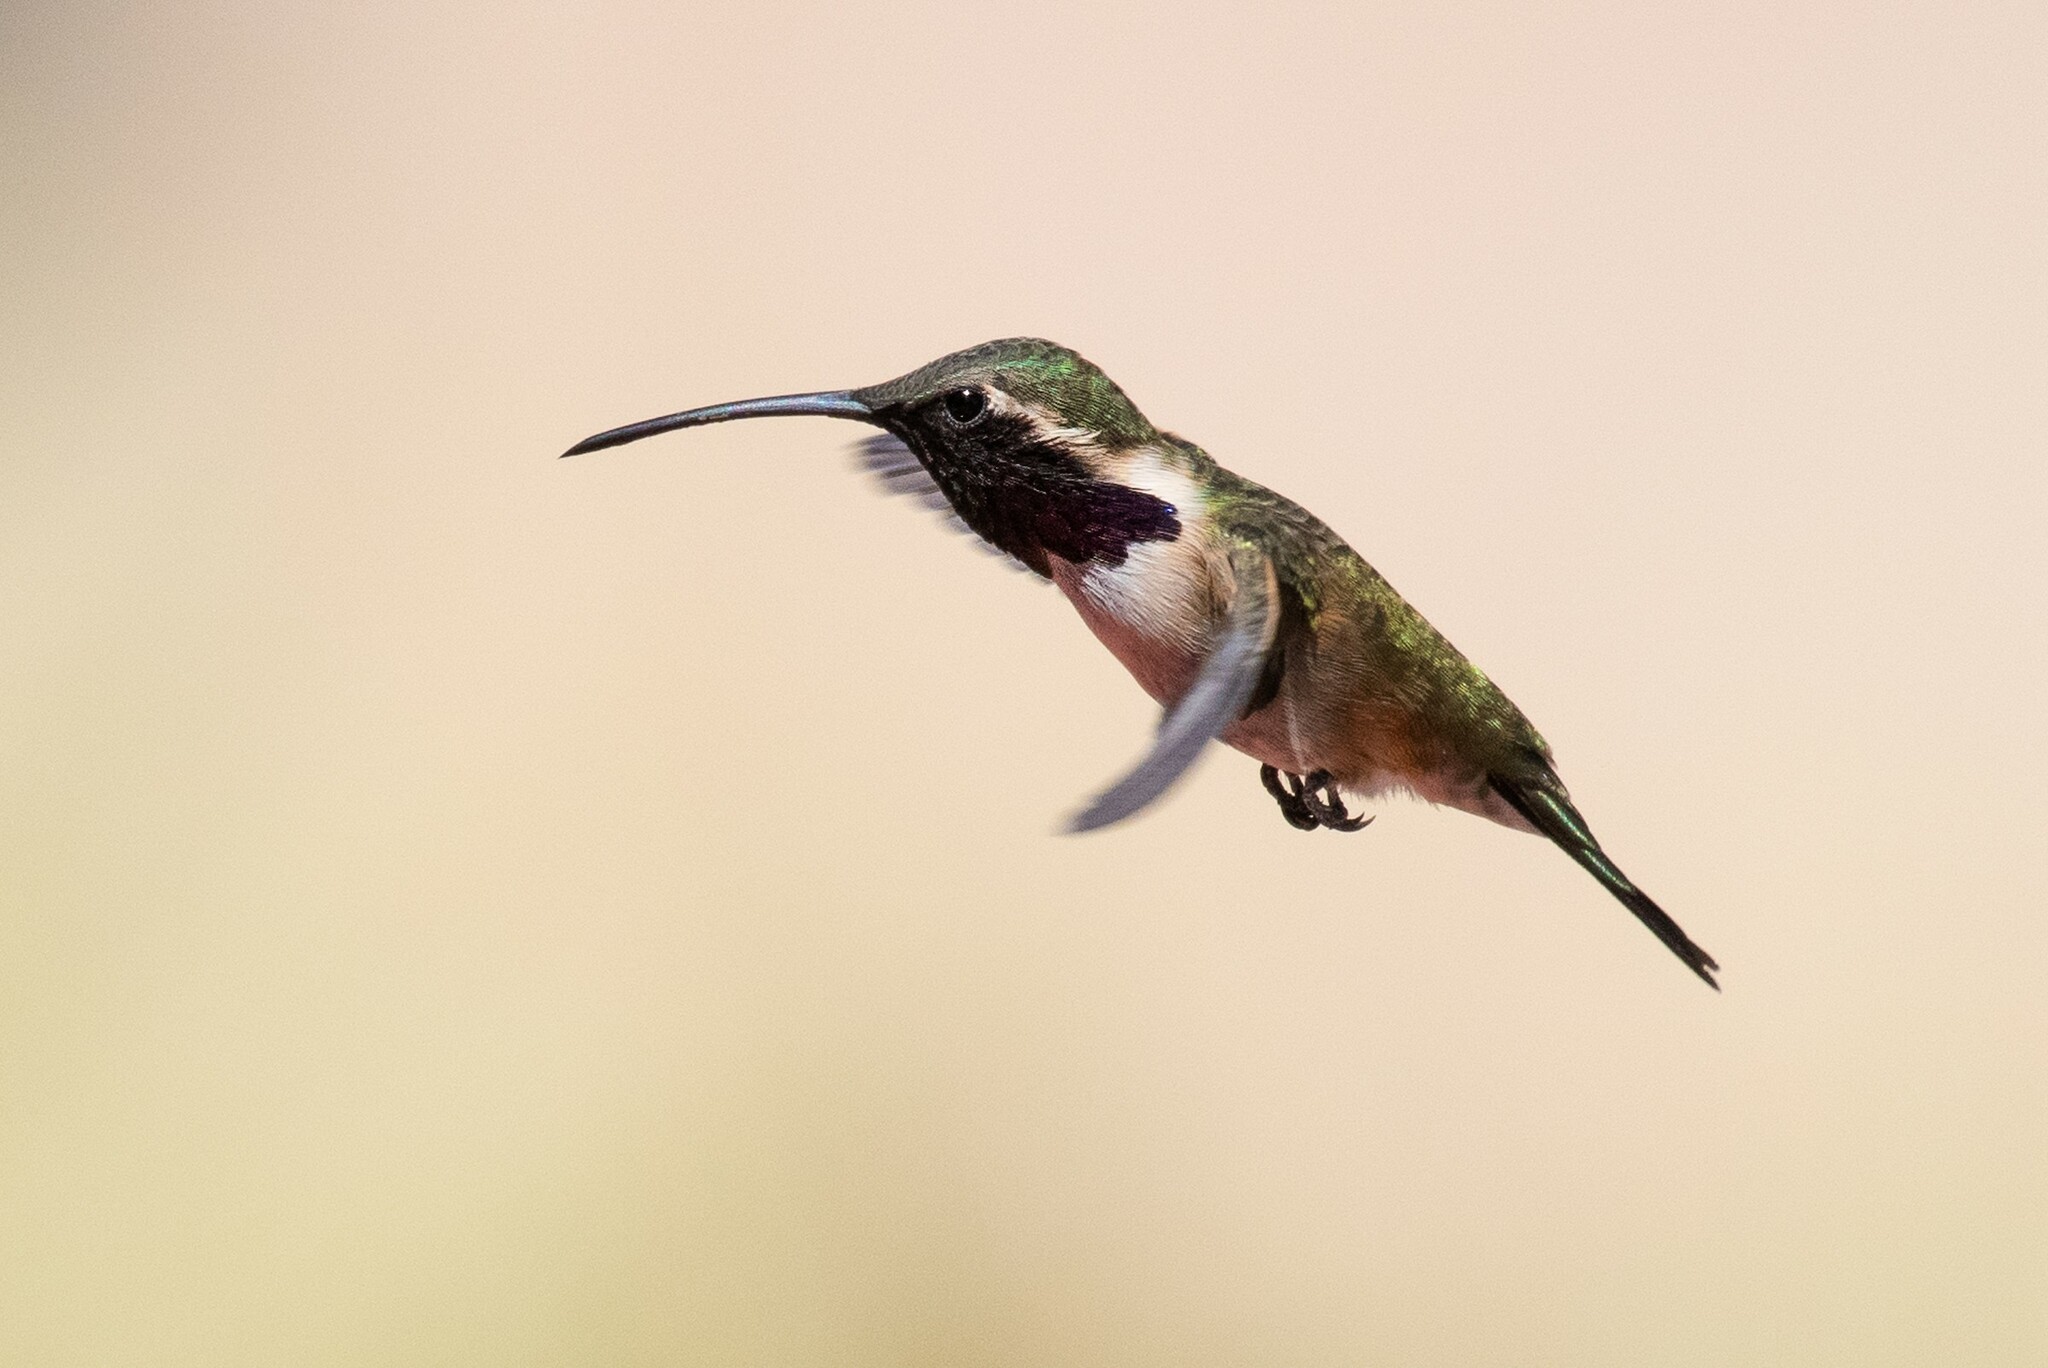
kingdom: Animalia
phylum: Chordata
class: Aves
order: Apodiformes
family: Trochilidae
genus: Calothorax
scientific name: Calothorax lucifer
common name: Lucifer sheartail
